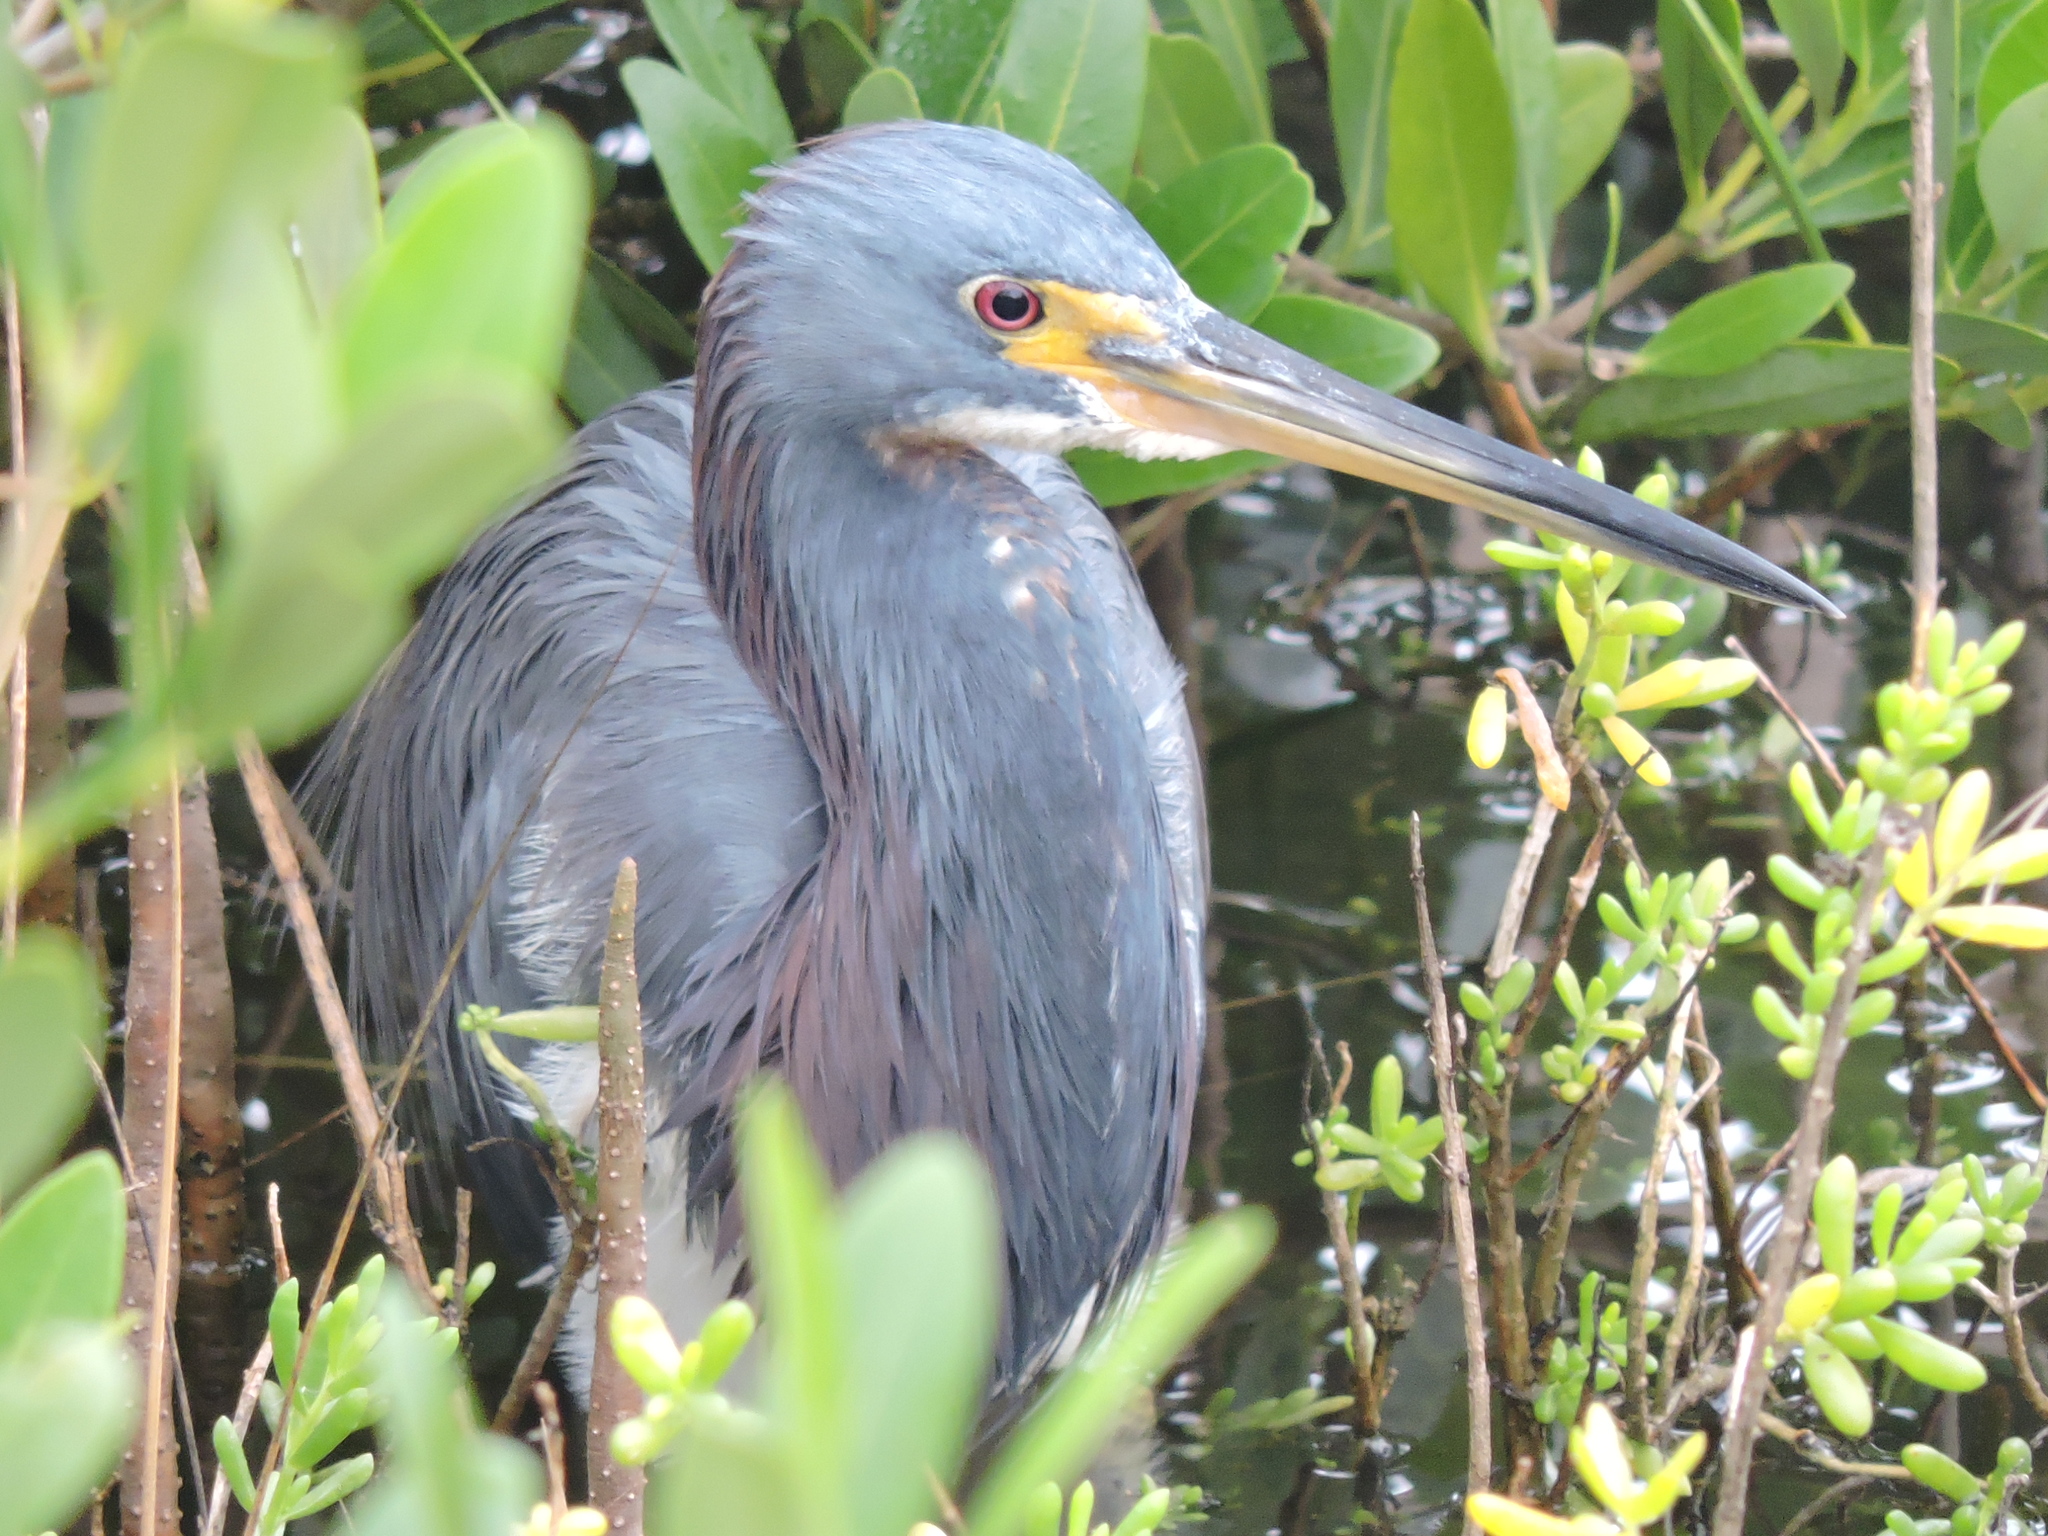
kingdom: Animalia
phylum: Chordata
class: Aves
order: Pelecaniformes
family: Ardeidae
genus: Egretta
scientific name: Egretta tricolor
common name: Tricolored heron
